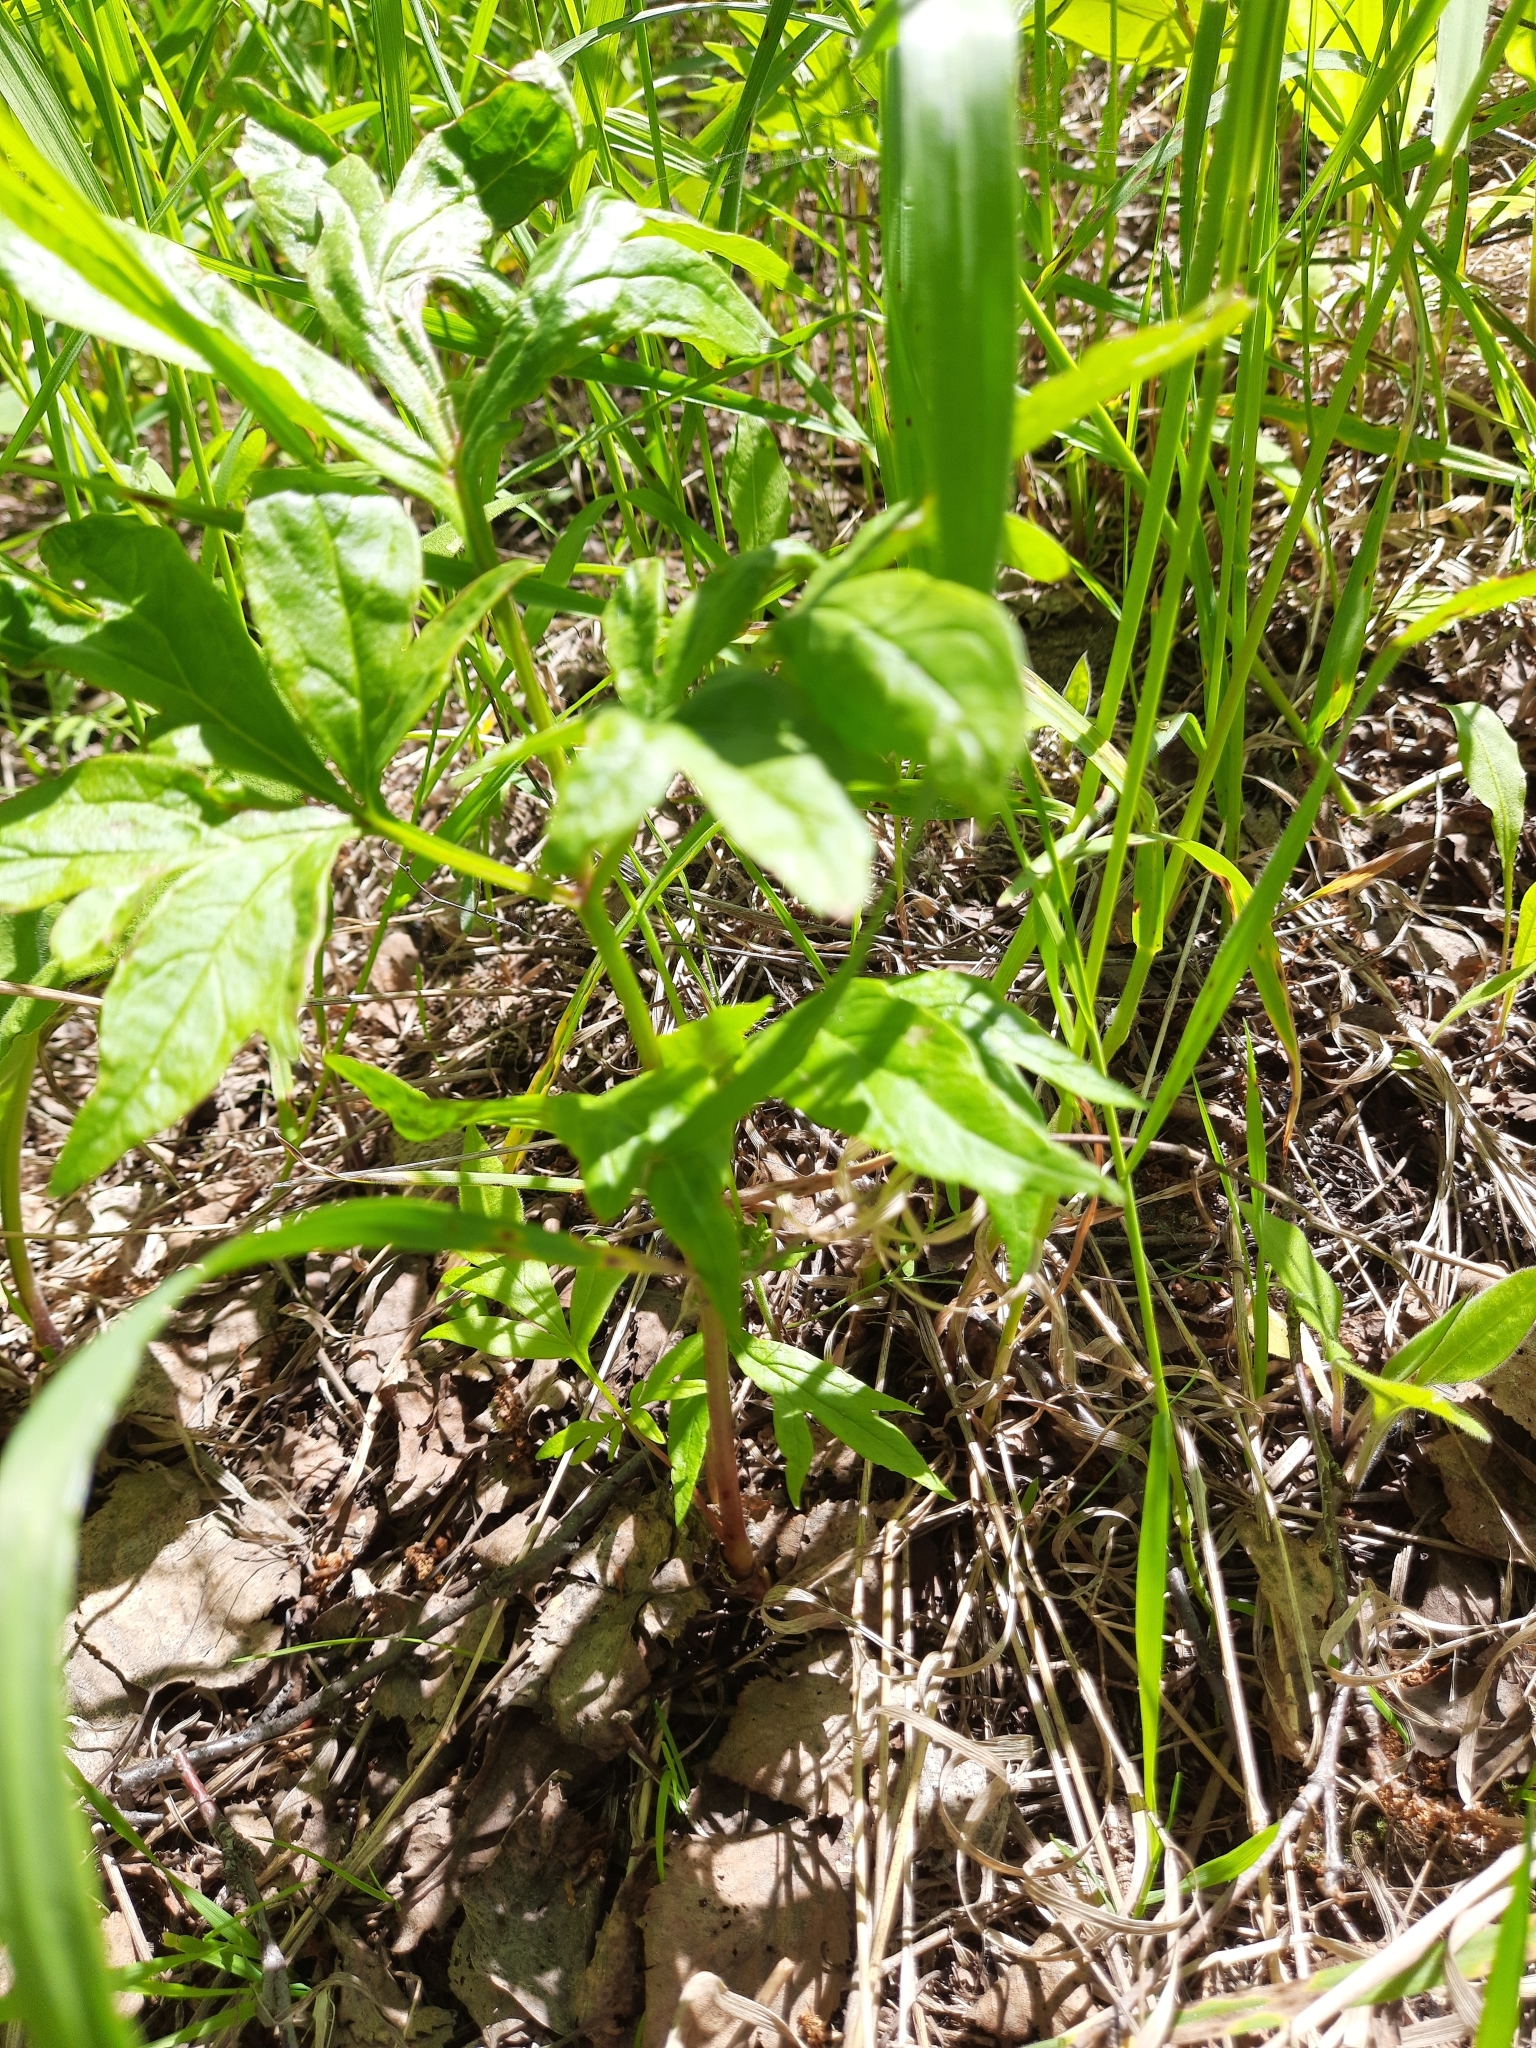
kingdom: Plantae
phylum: Tracheophyta
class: Magnoliopsida
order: Saxifragales
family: Paeoniaceae
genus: Paeonia
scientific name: Paeonia anomala
